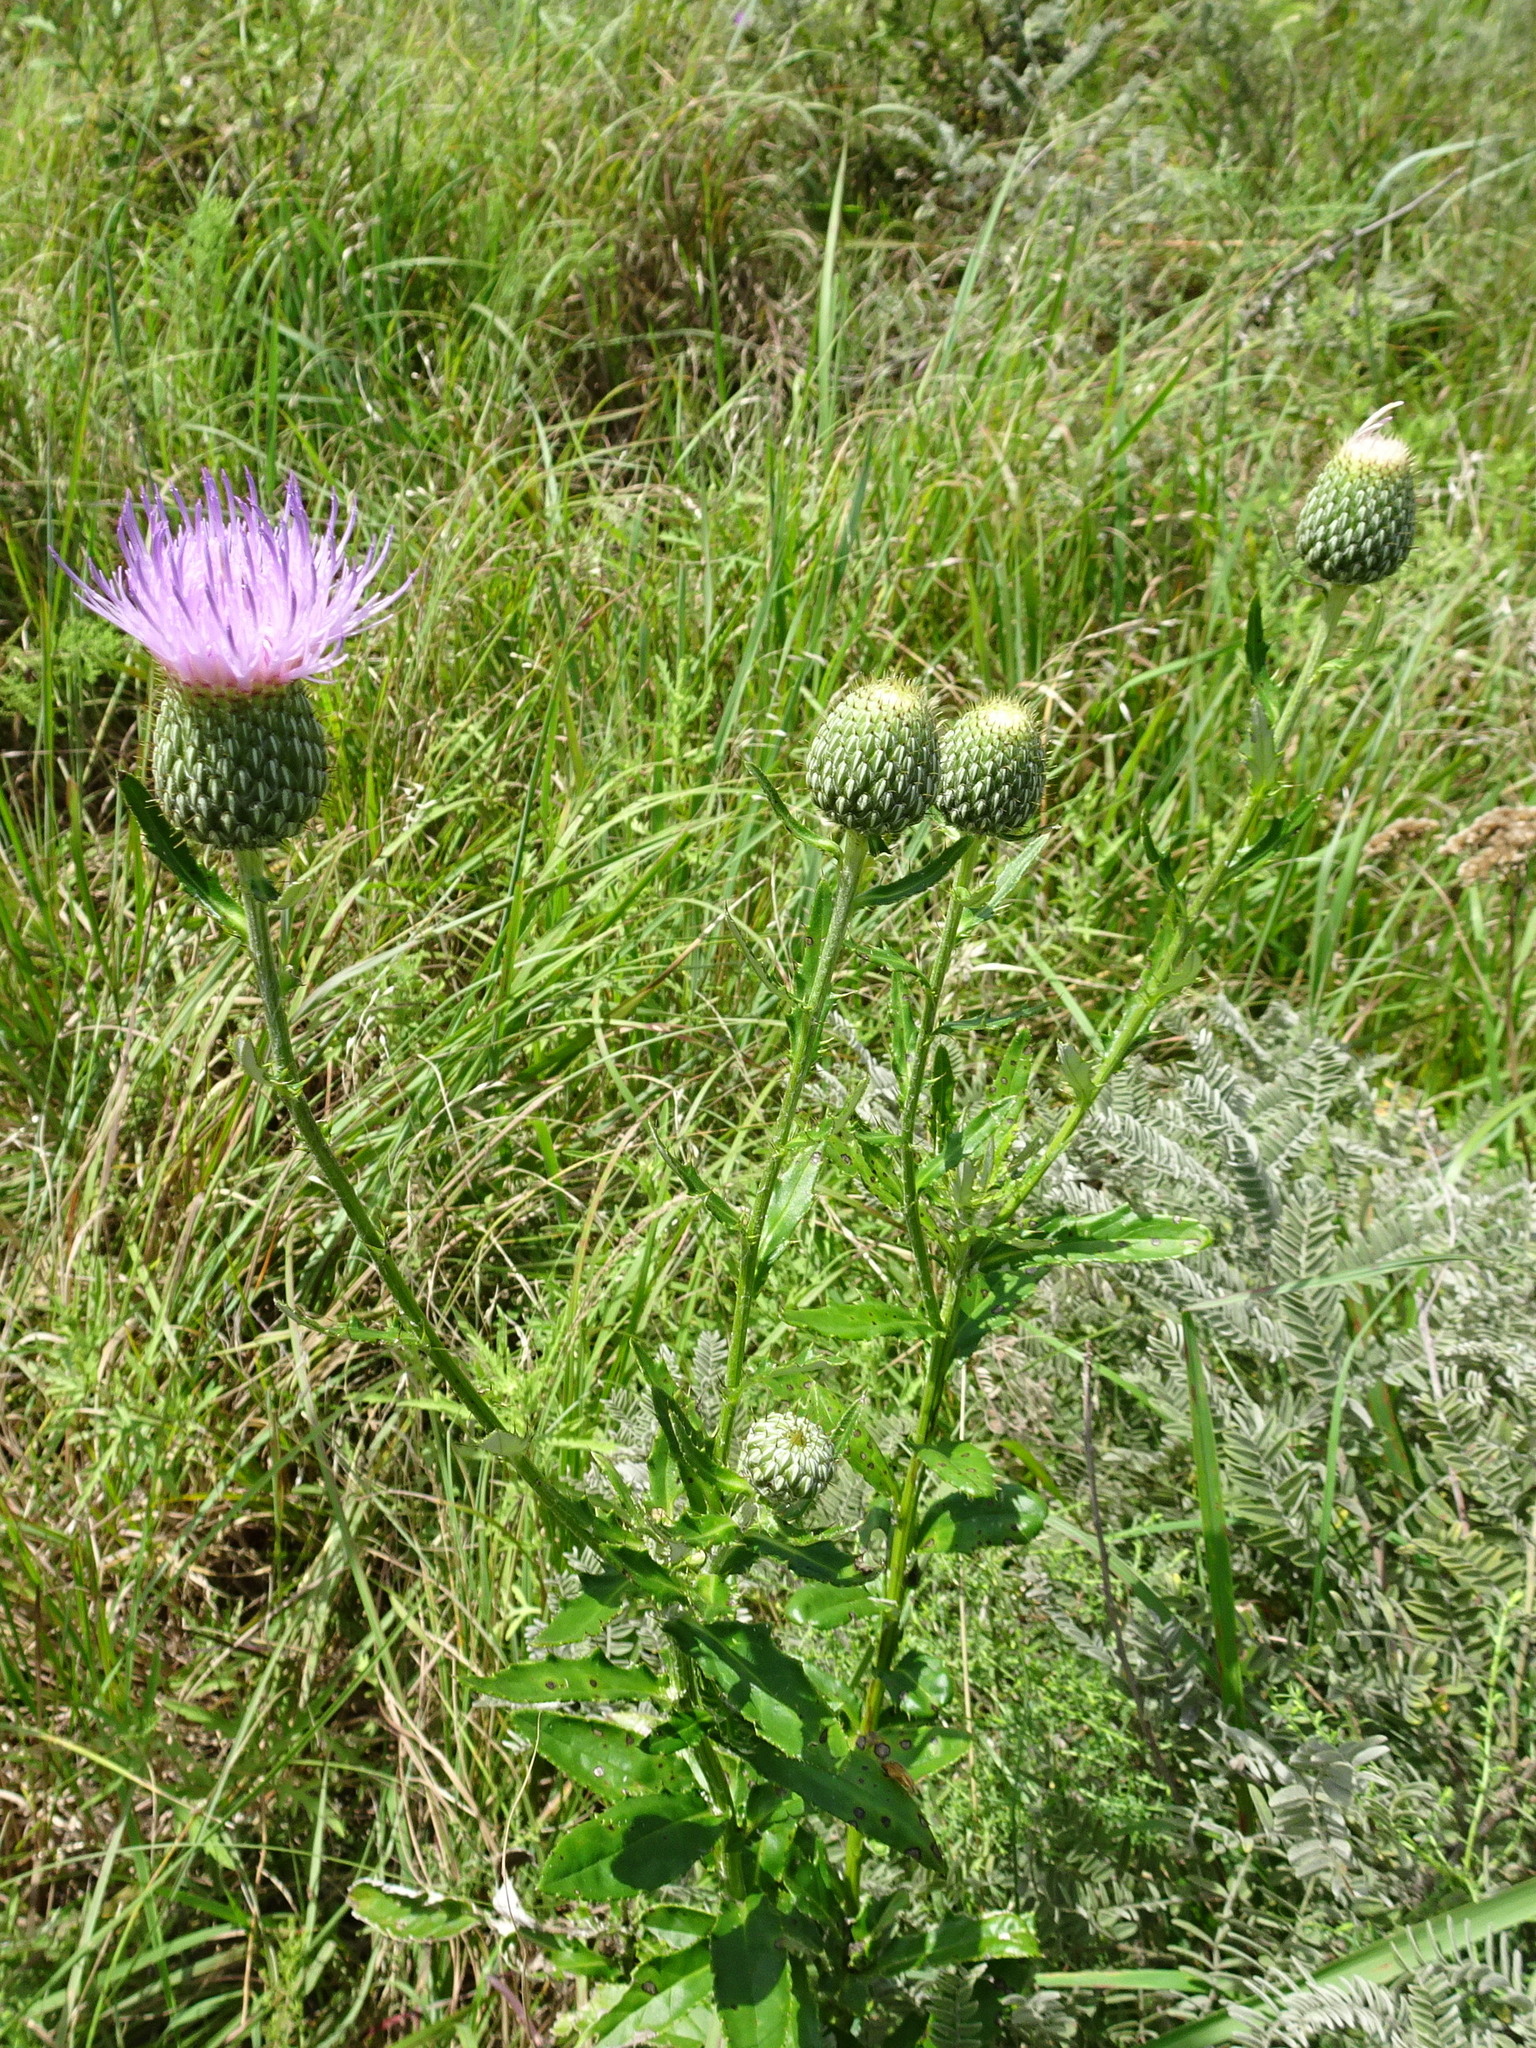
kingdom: Plantae
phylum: Tracheophyta
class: Magnoliopsida
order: Asterales
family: Asteraceae
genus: Cirsium
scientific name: Cirsium altissimum
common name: Roadside thistle
